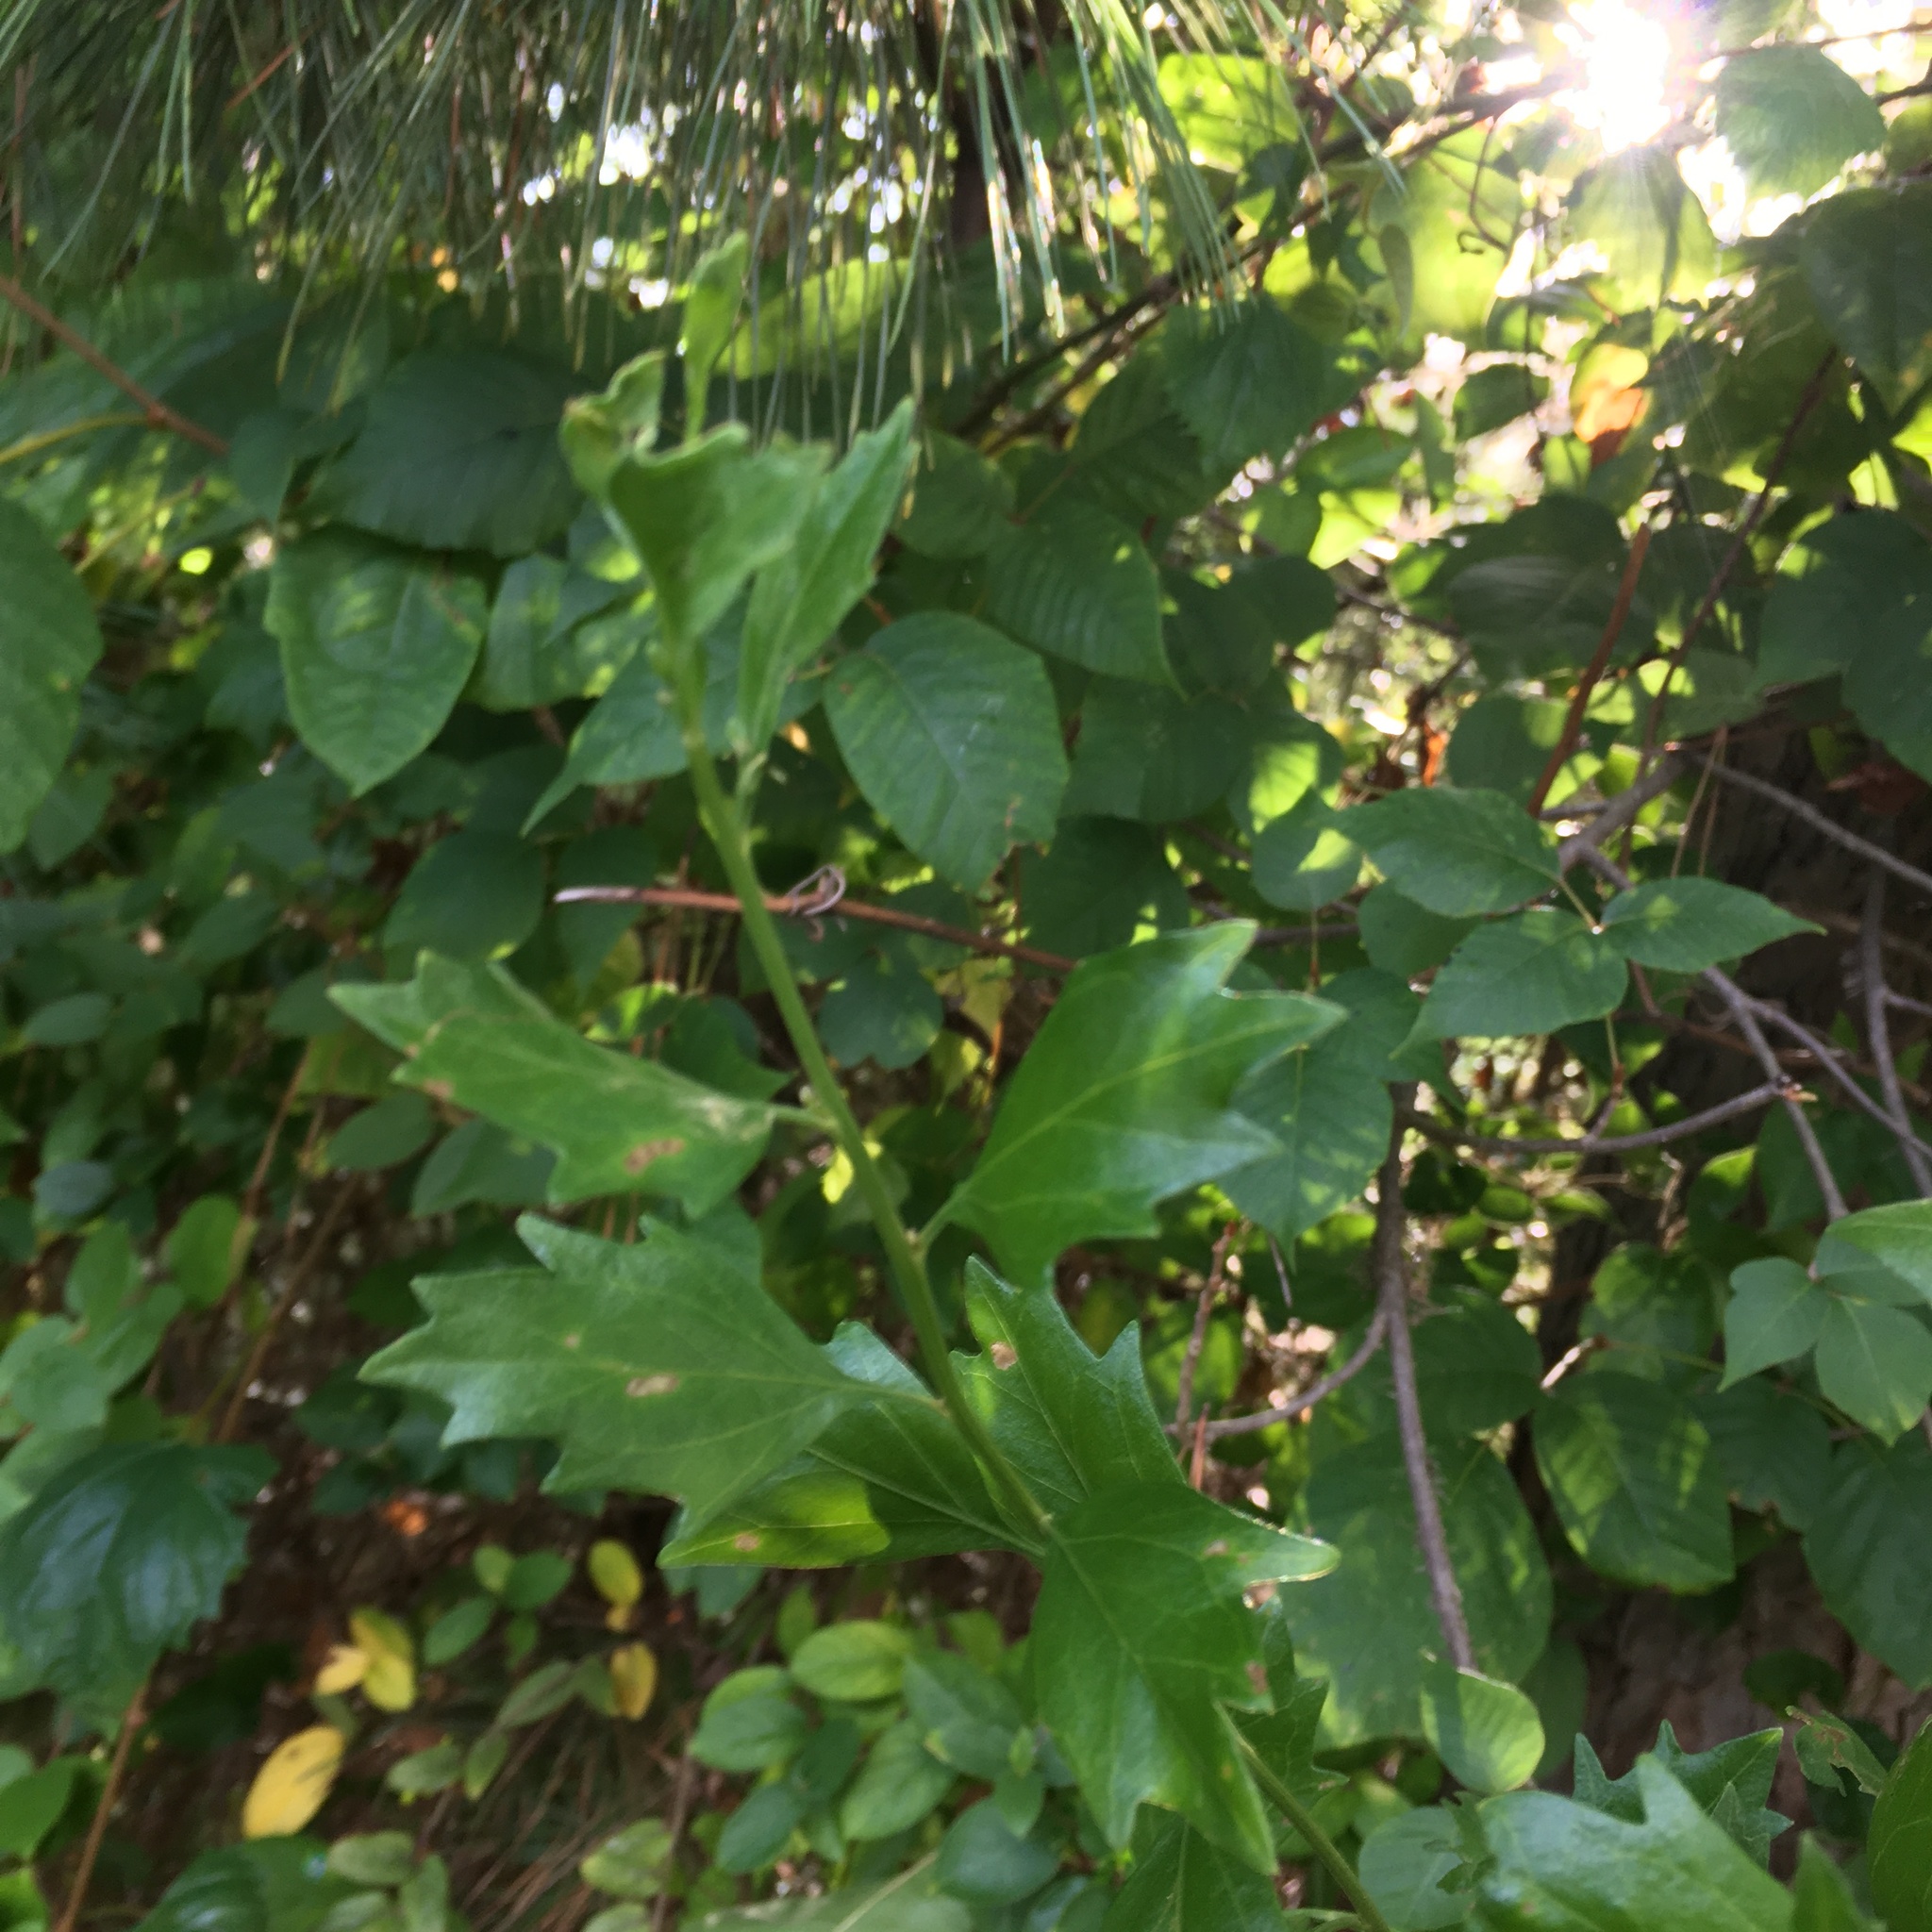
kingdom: Plantae
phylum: Tracheophyta
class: Magnoliopsida
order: Asterales
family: Asteraceae
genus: Baccharis
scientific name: Baccharis halimifolia
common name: Eastern baccharis
